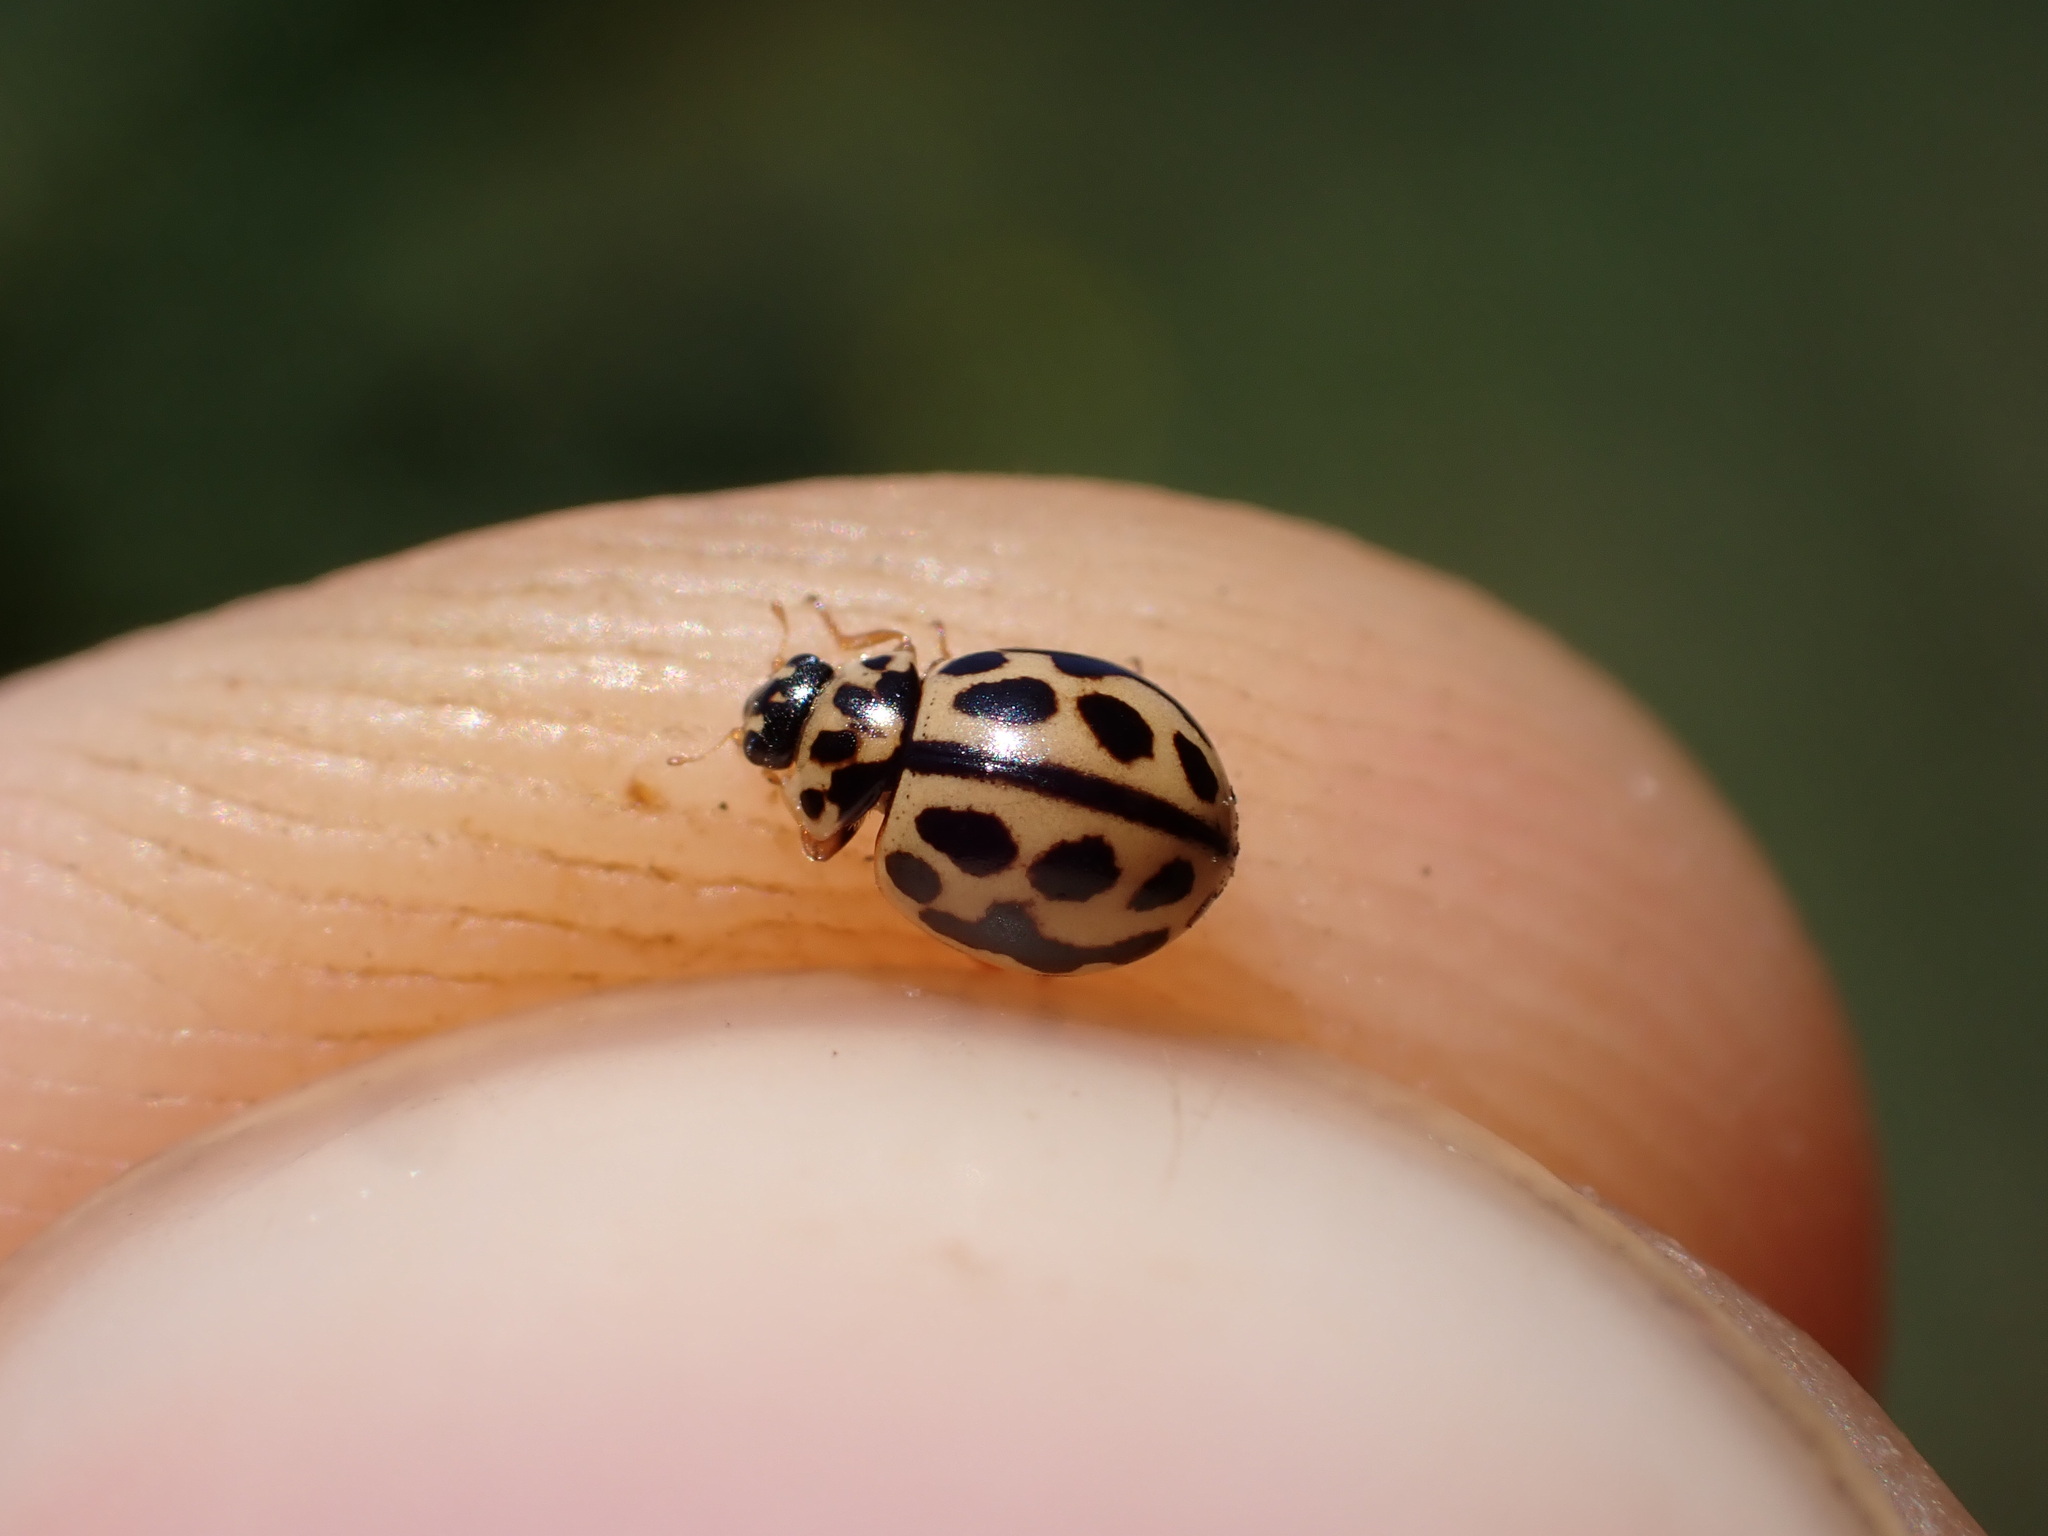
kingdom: Animalia
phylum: Arthropoda
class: Insecta
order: Coleoptera
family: Coccinellidae
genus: Tytthaspis
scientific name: Tytthaspis sedecimpunctata
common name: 16-spot ladybird
